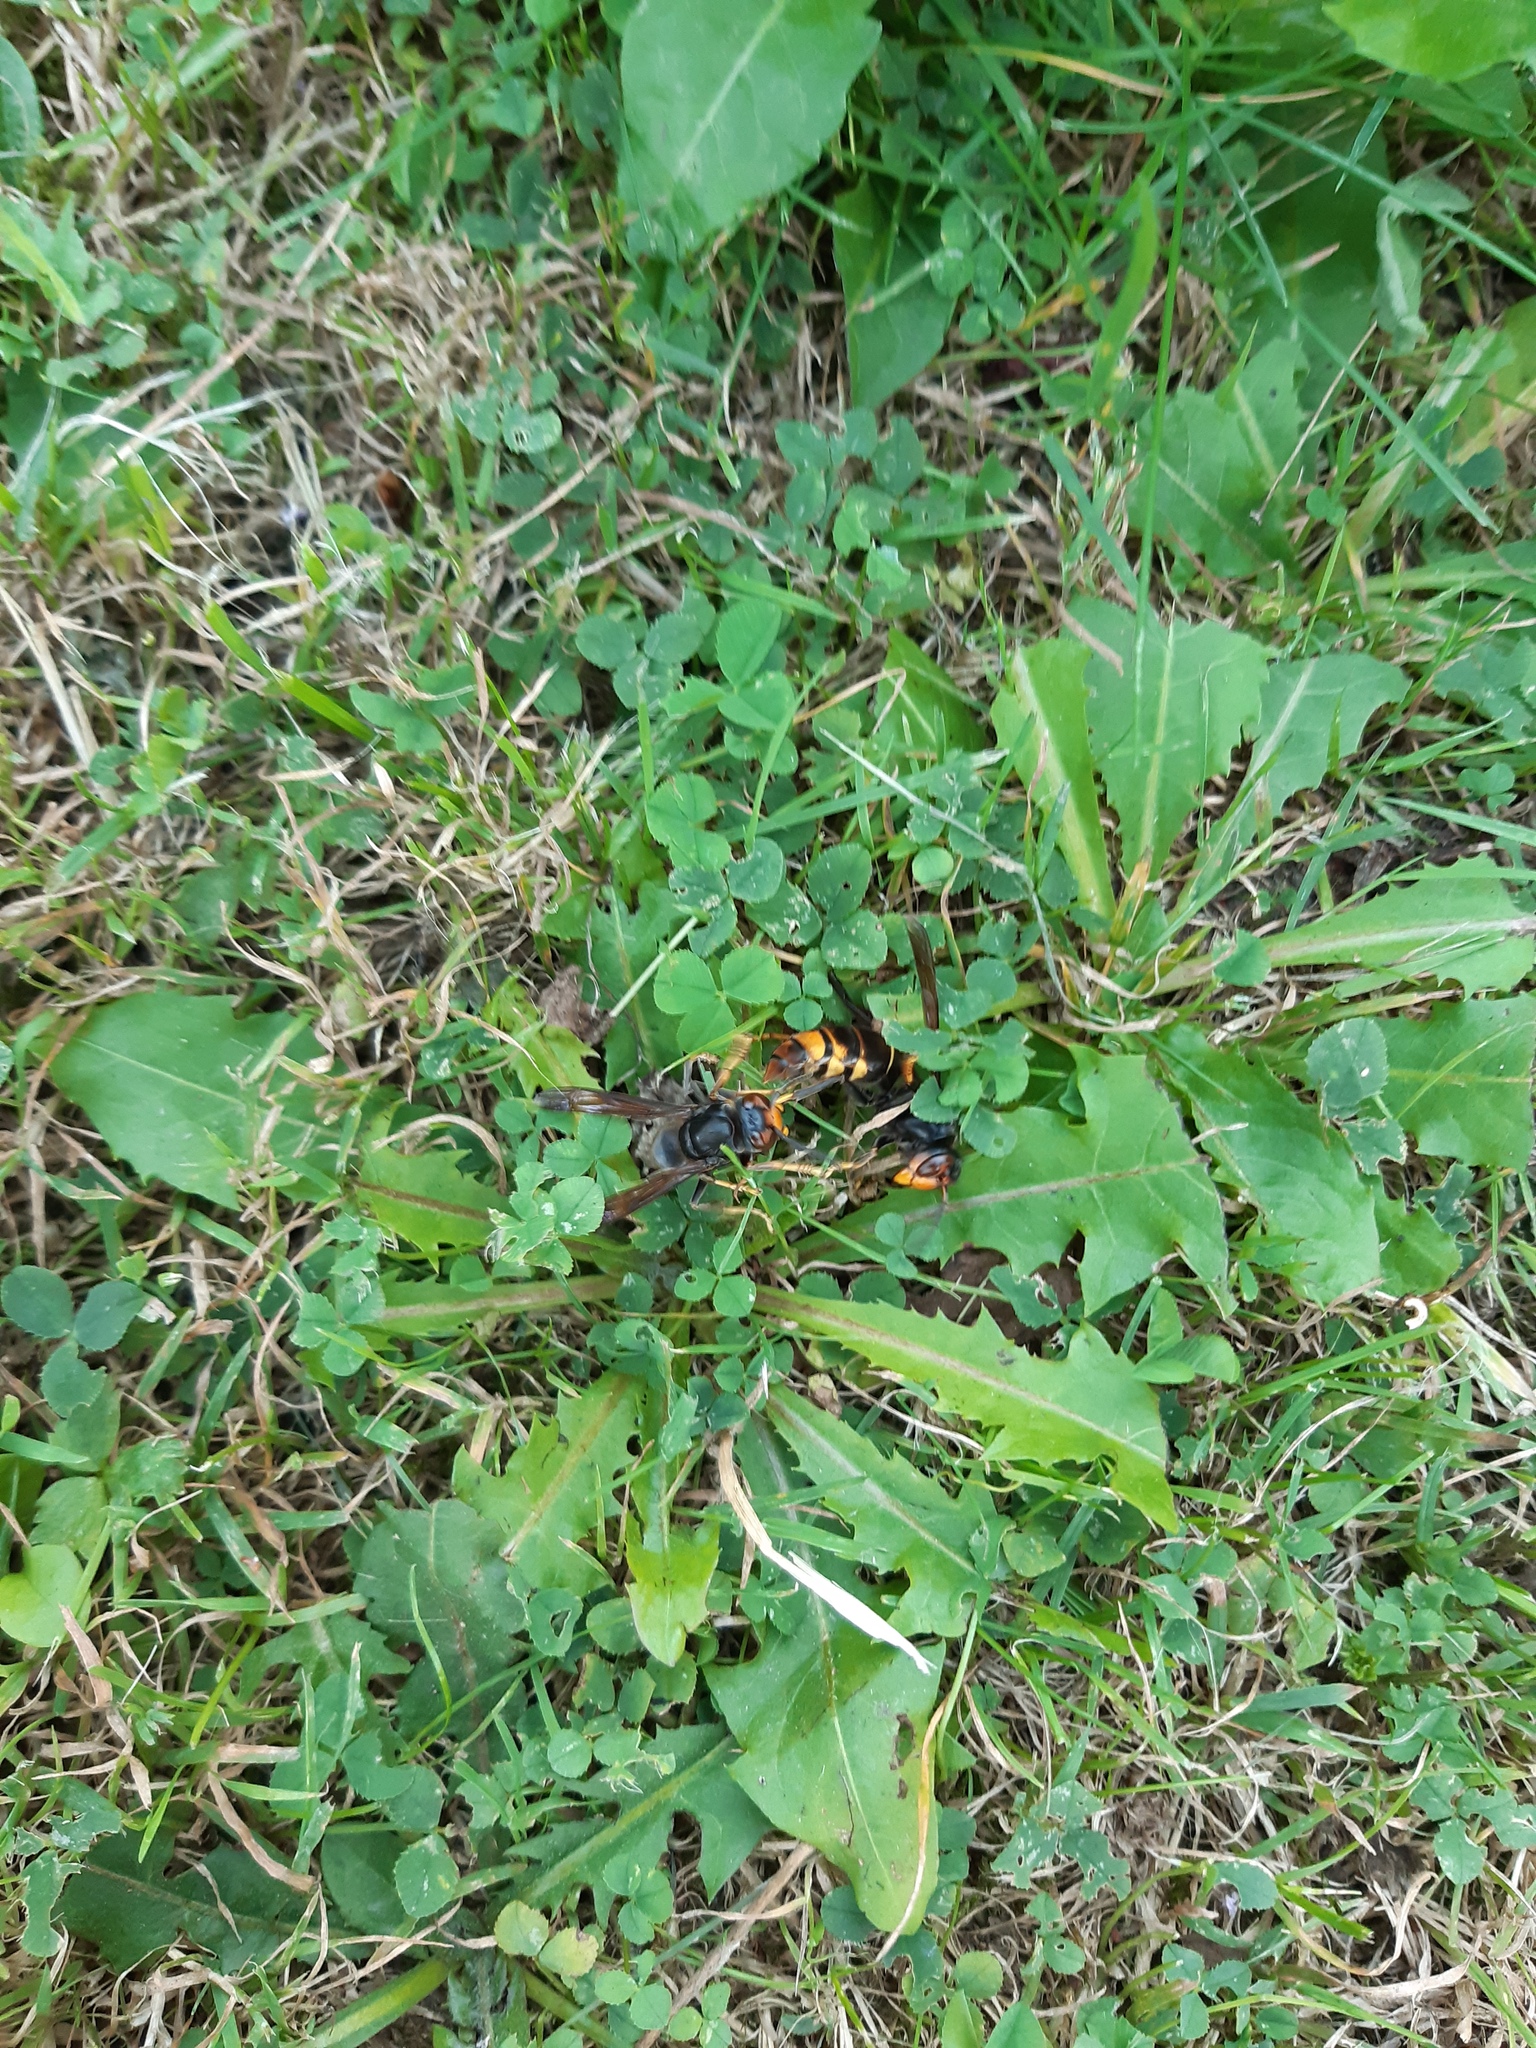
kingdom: Animalia
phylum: Arthropoda
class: Insecta
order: Hymenoptera
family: Vespidae
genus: Vespa
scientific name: Vespa velutina
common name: Asian hornet
